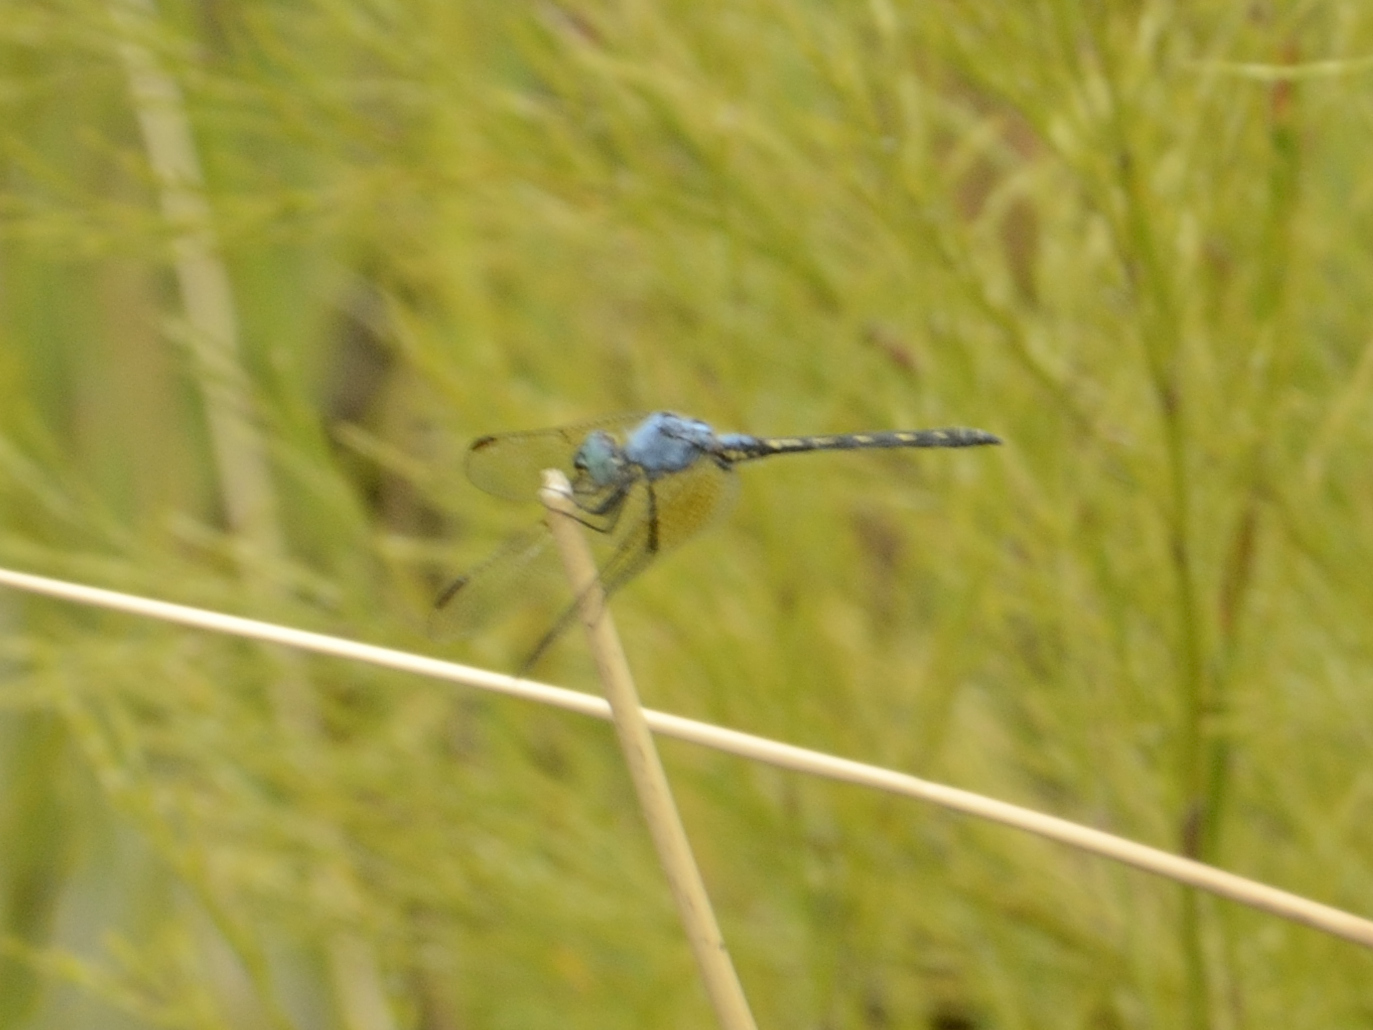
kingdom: Animalia
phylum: Arthropoda
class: Insecta
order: Odonata
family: Libellulidae
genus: Trithemis
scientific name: Trithemis stictica
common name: Jaunty dropwing
